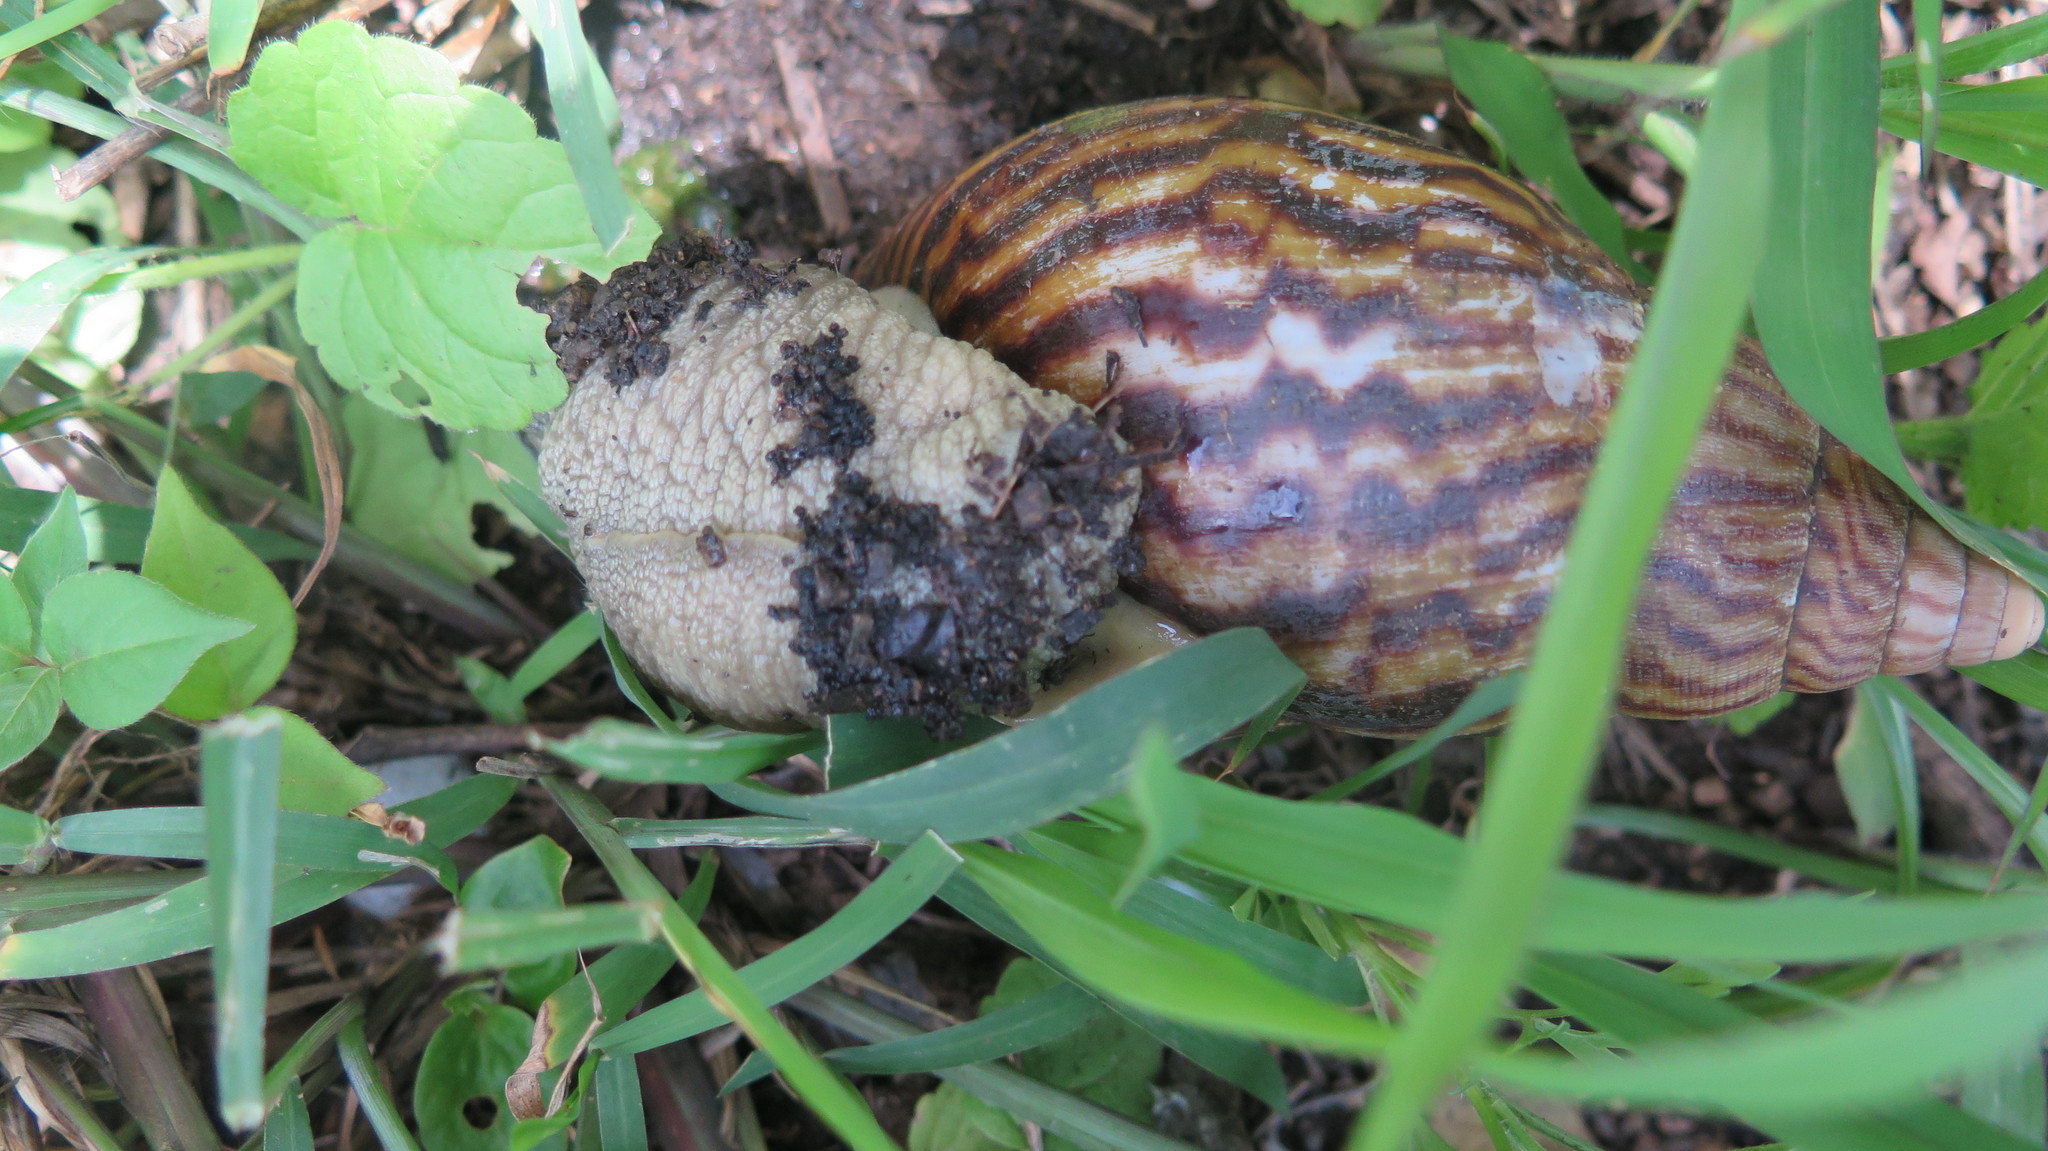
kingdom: Animalia
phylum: Mollusca
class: Gastropoda
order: Stylommatophora
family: Achatinidae
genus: Cochlitoma
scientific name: Cochlitoma granulata
